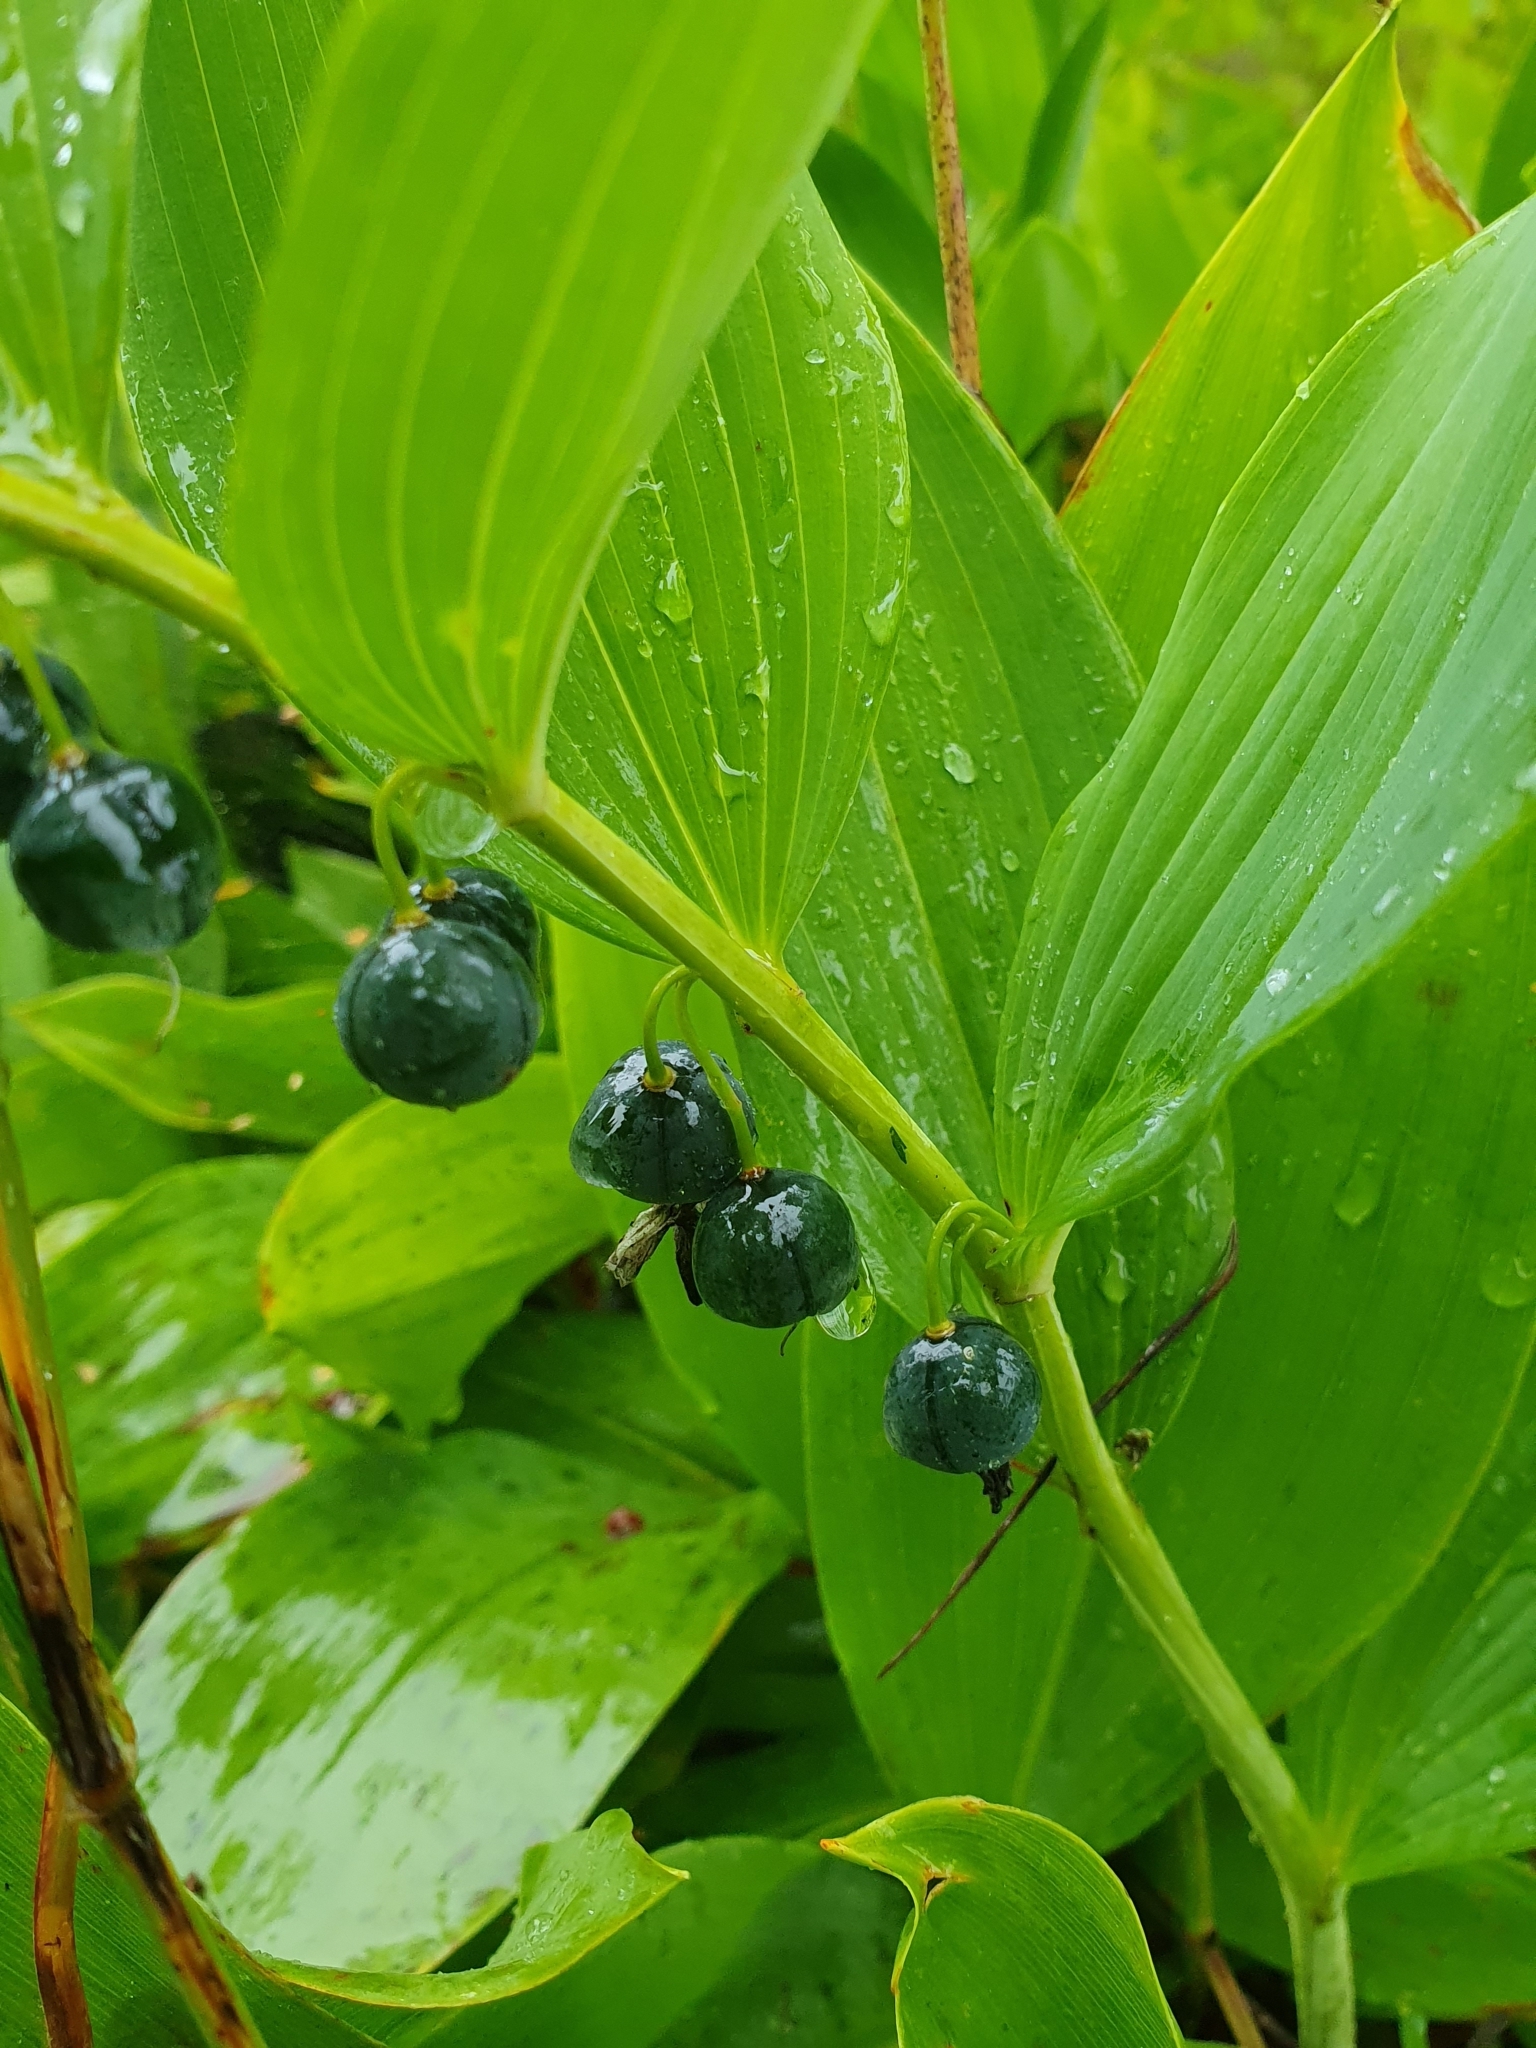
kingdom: Plantae
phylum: Tracheophyta
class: Liliopsida
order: Asparagales
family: Asparagaceae
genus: Polygonatum
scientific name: Polygonatum odoratum
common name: Angular solomon's-seal
